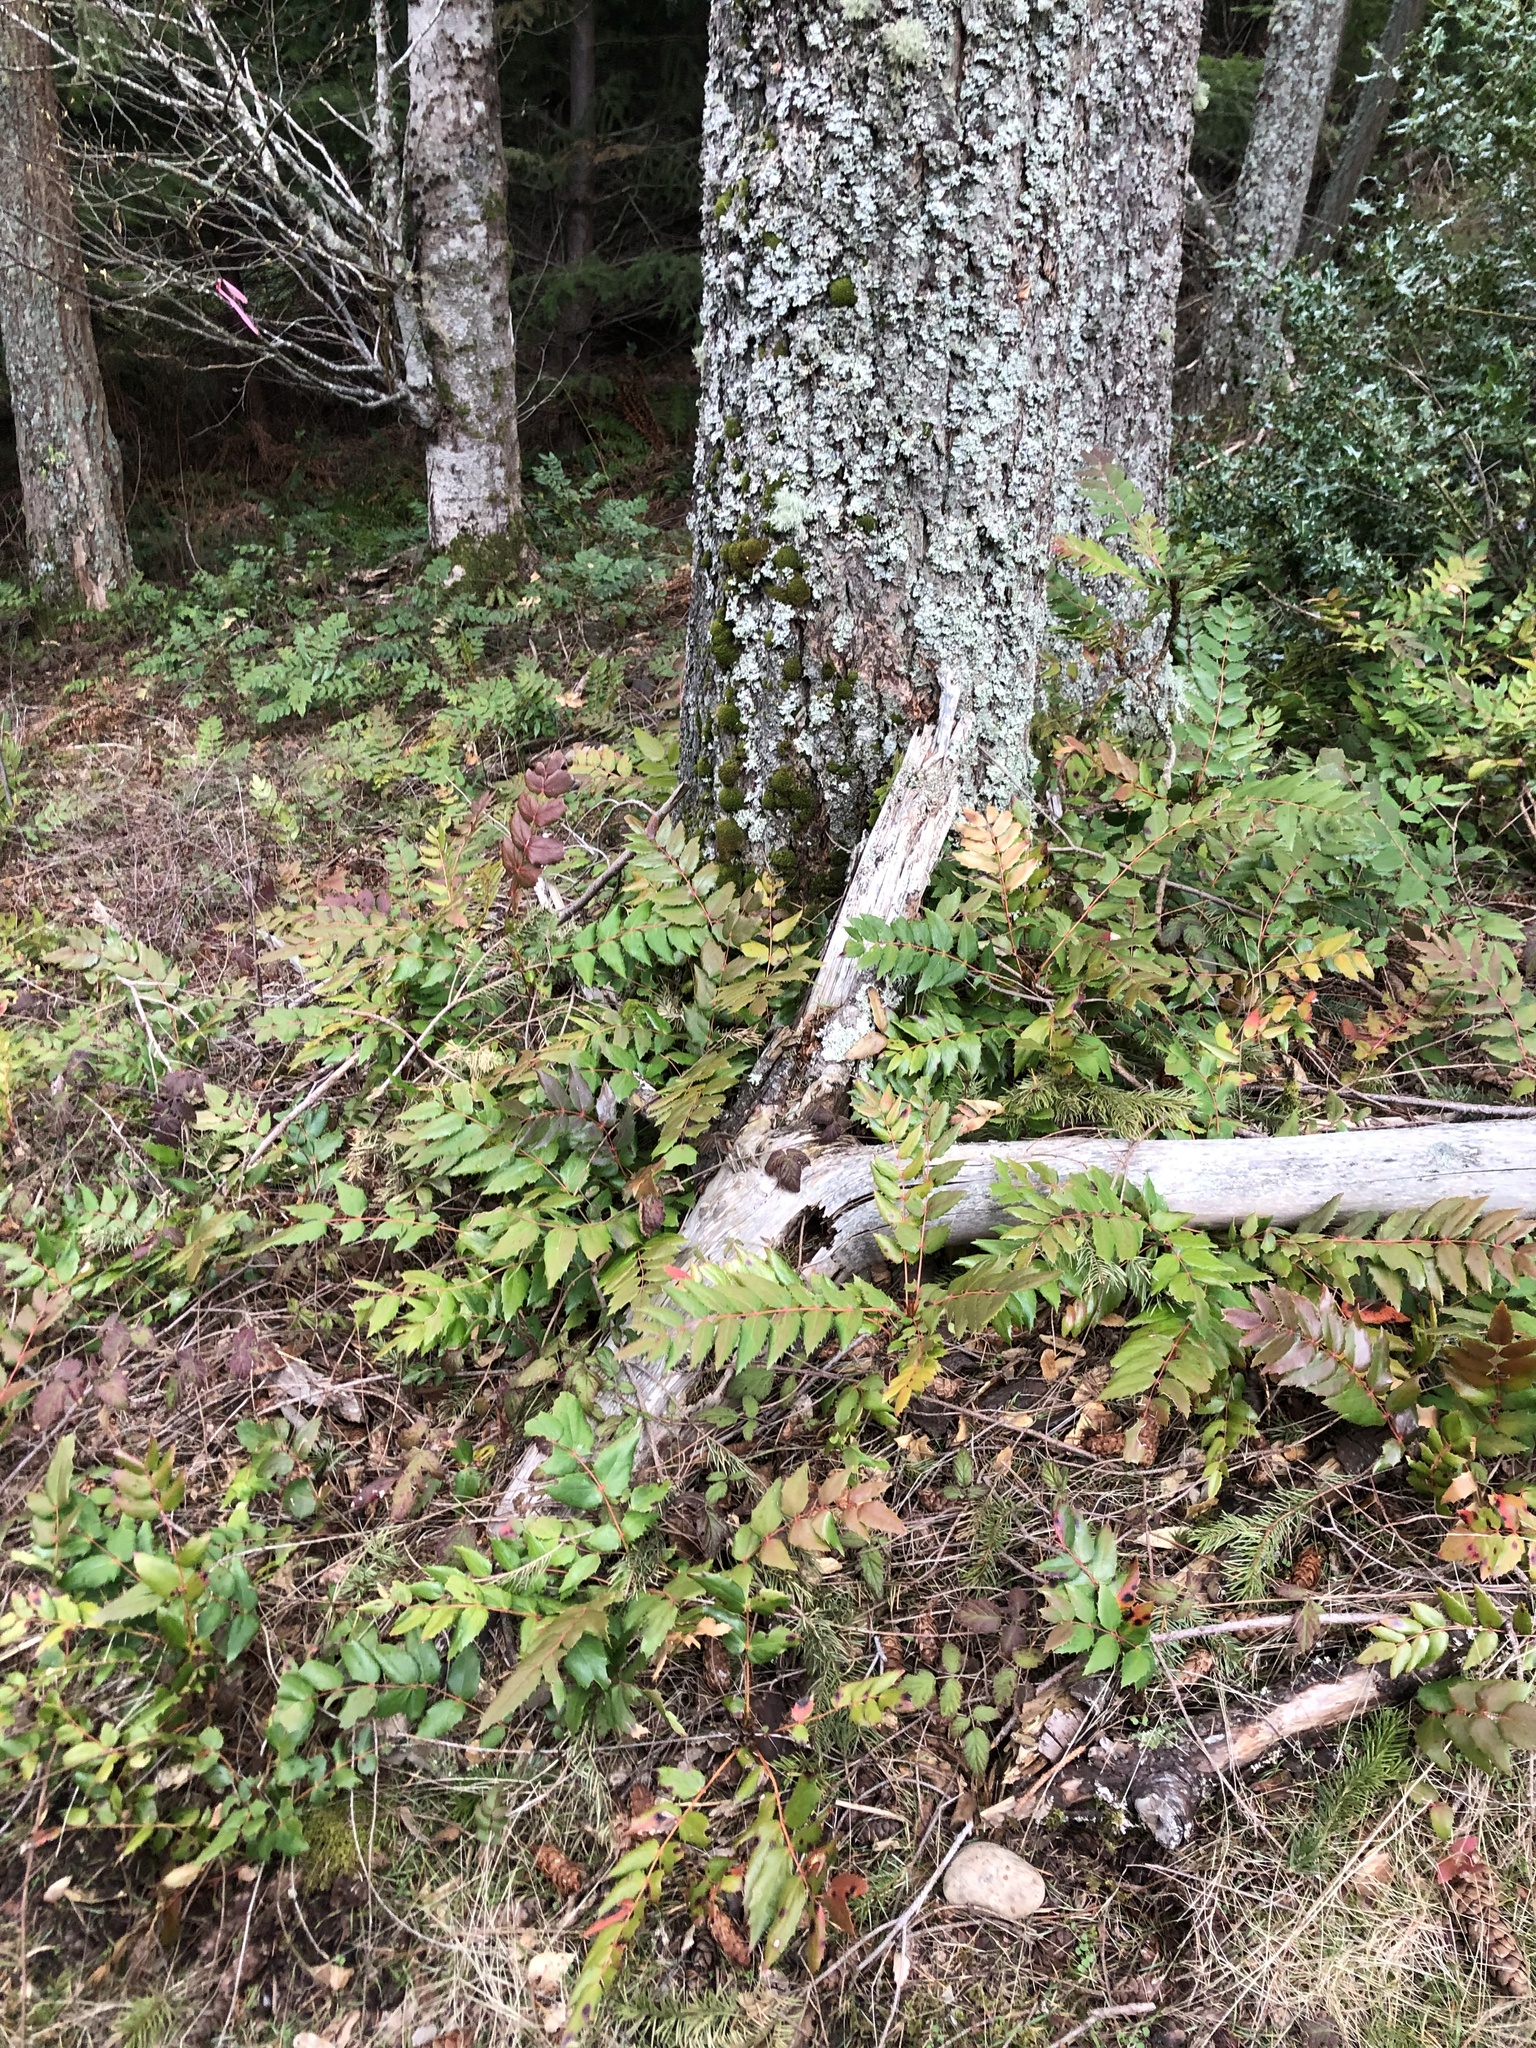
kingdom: Plantae
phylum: Tracheophyta
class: Magnoliopsida
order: Ranunculales
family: Berberidaceae
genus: Mahonia
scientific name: Mahonia nervosa
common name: Cascade oregon-grape
